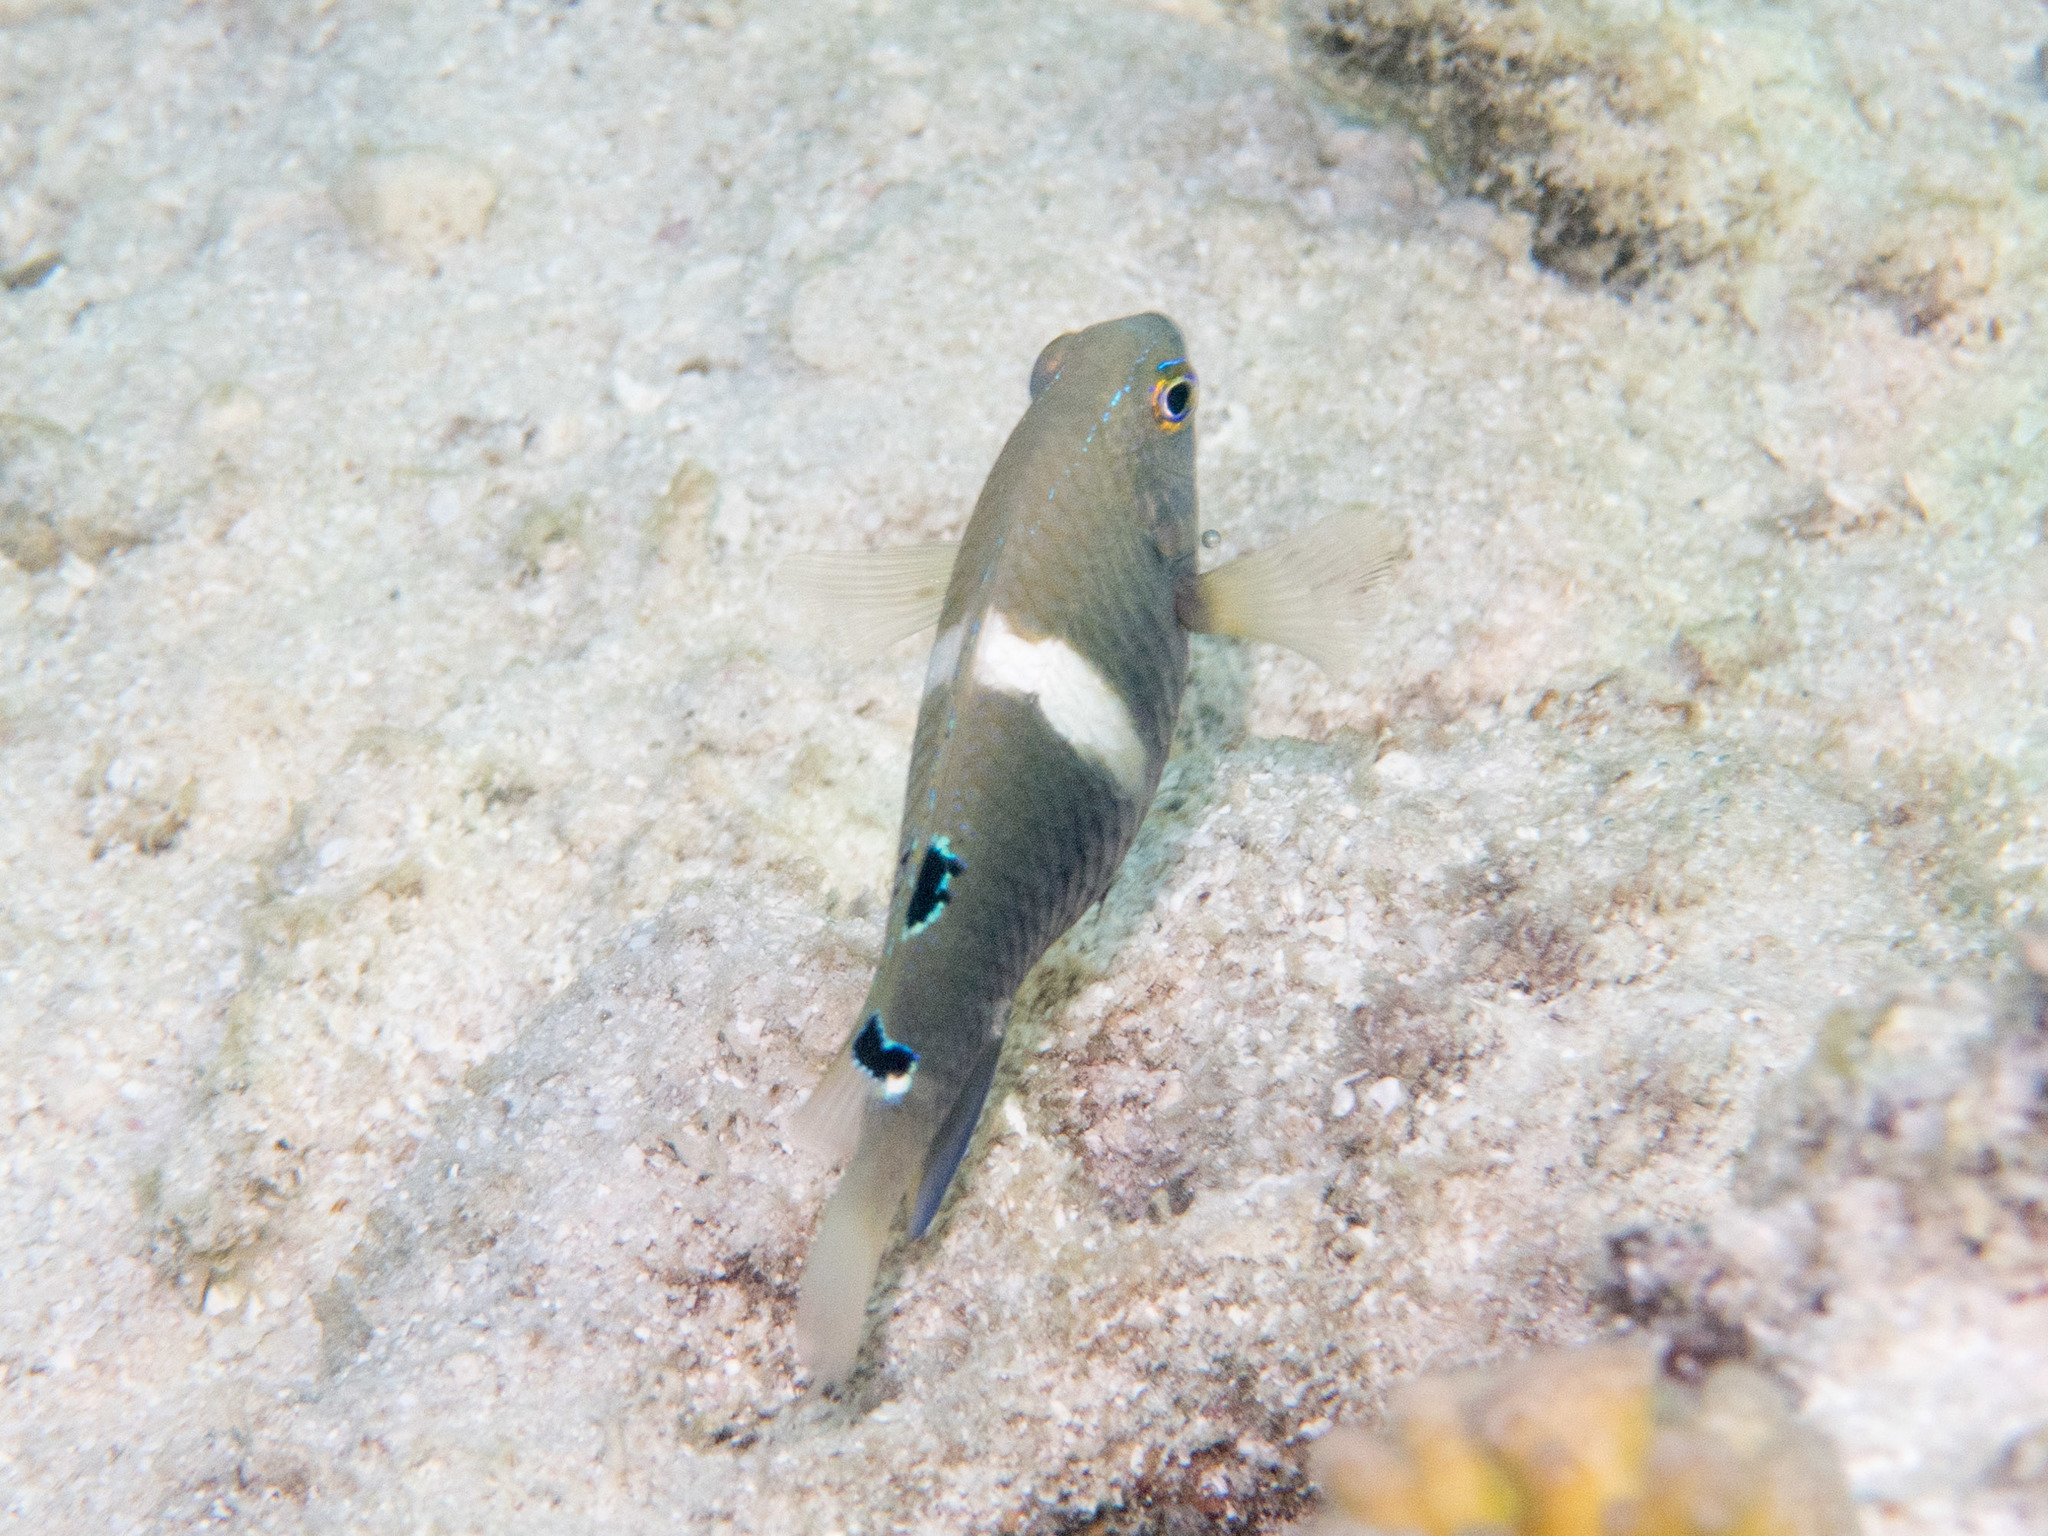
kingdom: Animalia
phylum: Chordata
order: Perciformes
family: Pomacentridae
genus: Chrysiptera
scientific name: Chrysiptera biocellata
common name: Twinspot damselfish
